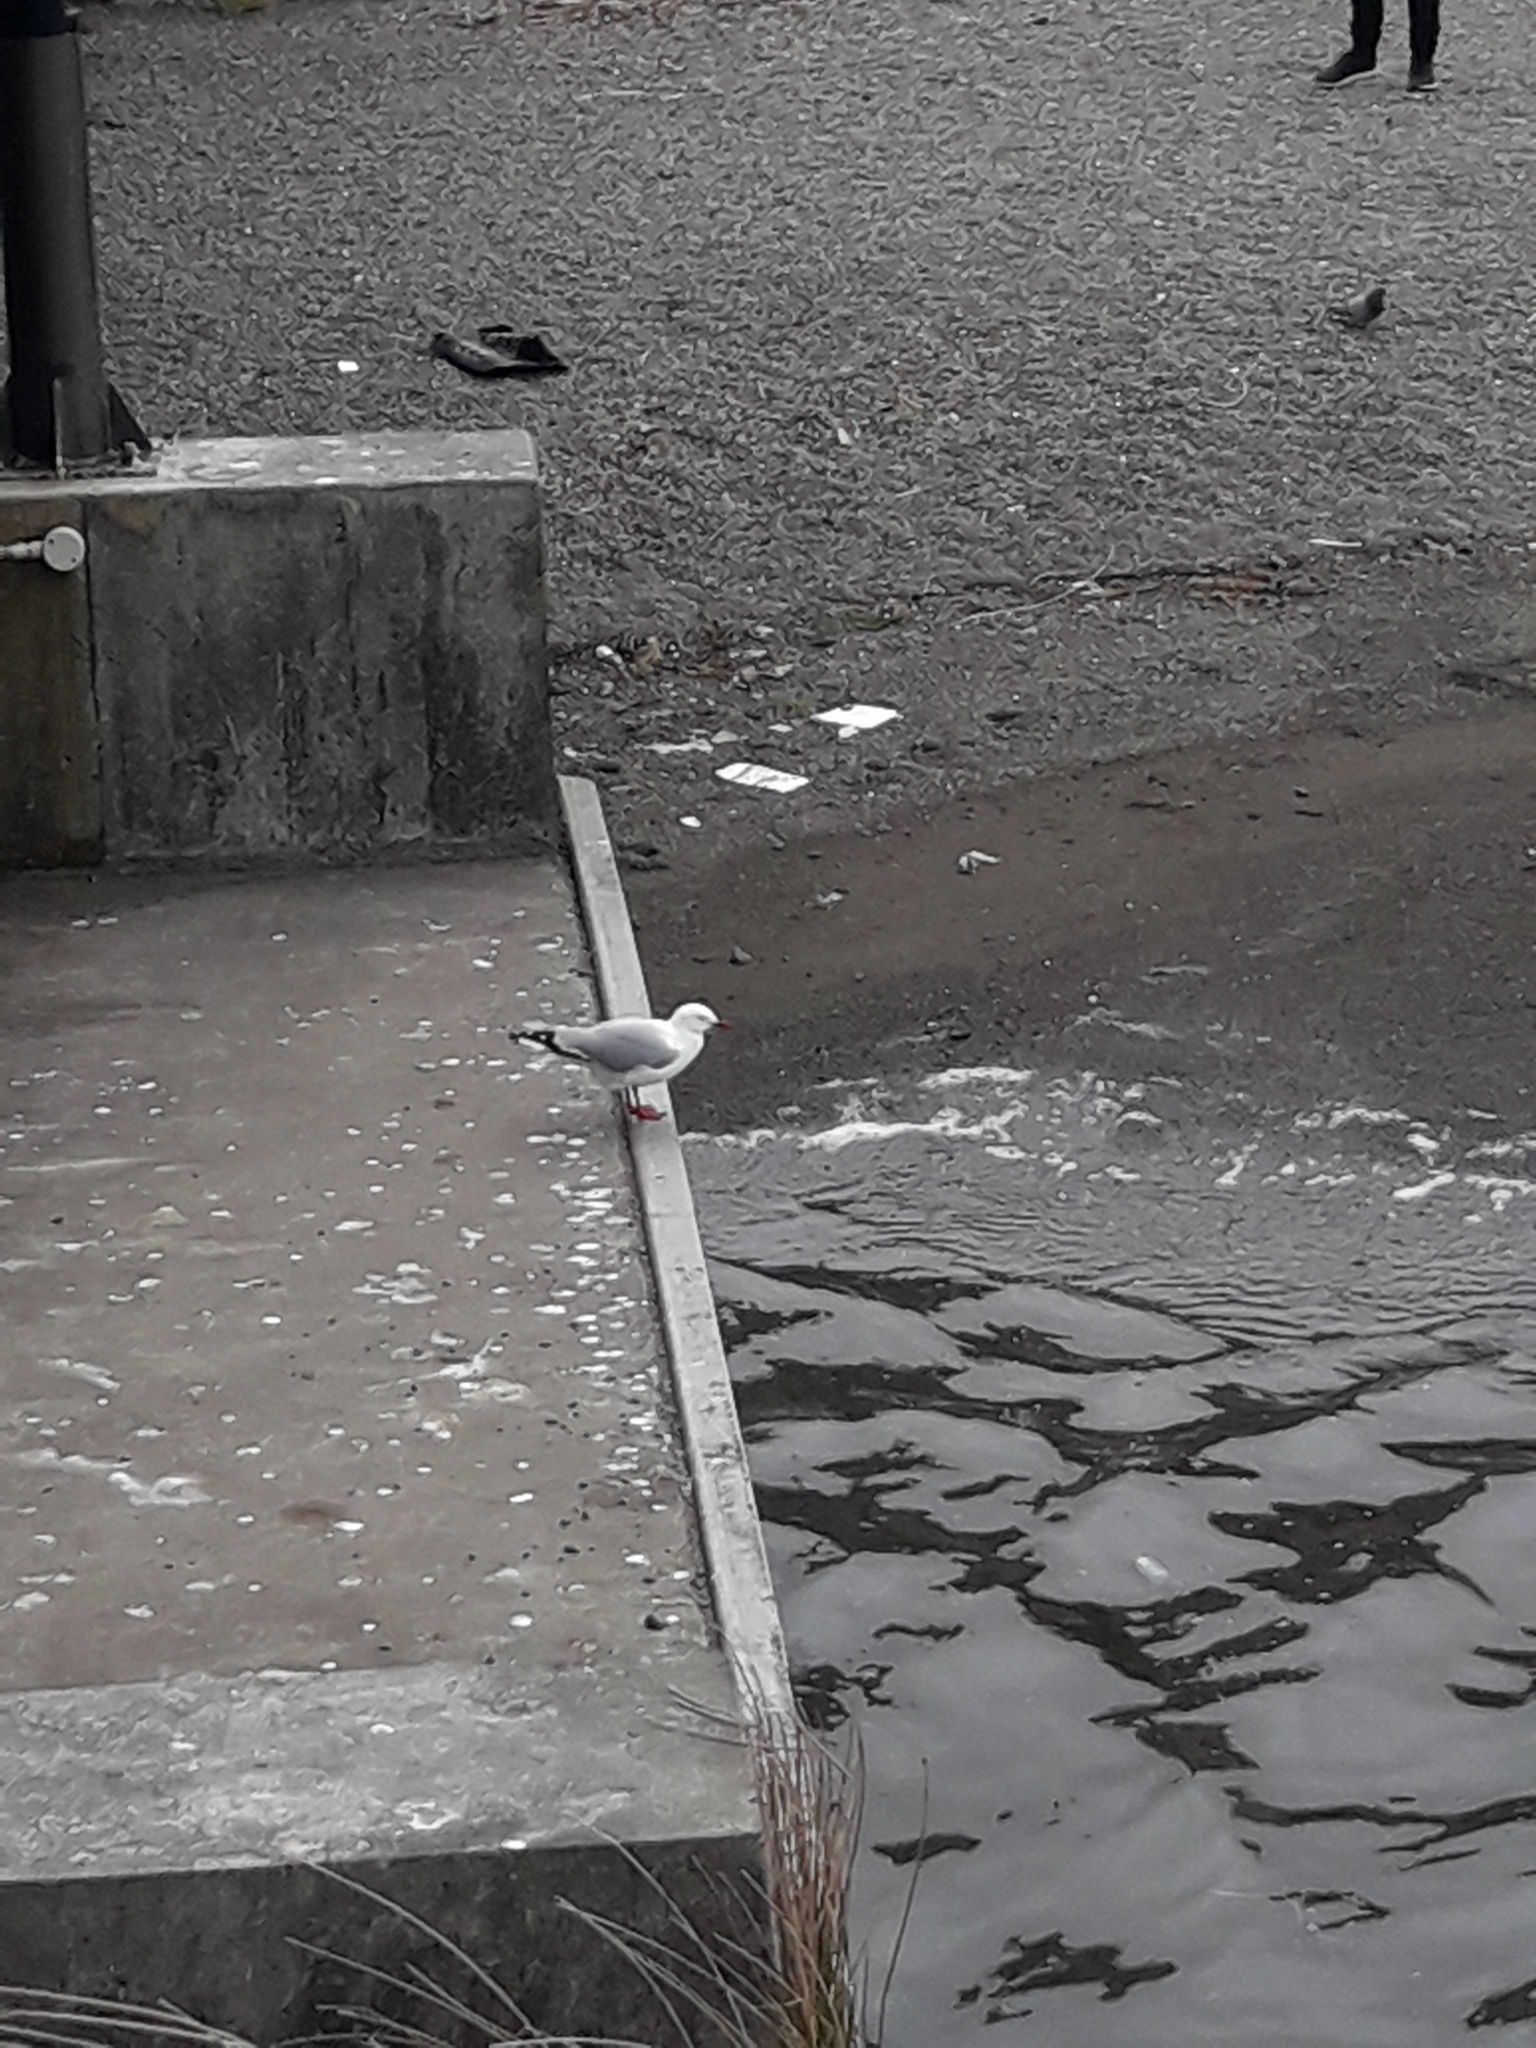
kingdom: Animalia
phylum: Chordata
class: Aves
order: Charadriiformes
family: Laridae
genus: Chroicocephalus
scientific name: Chroicocephalus novaehollandiae
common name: Silver gull
